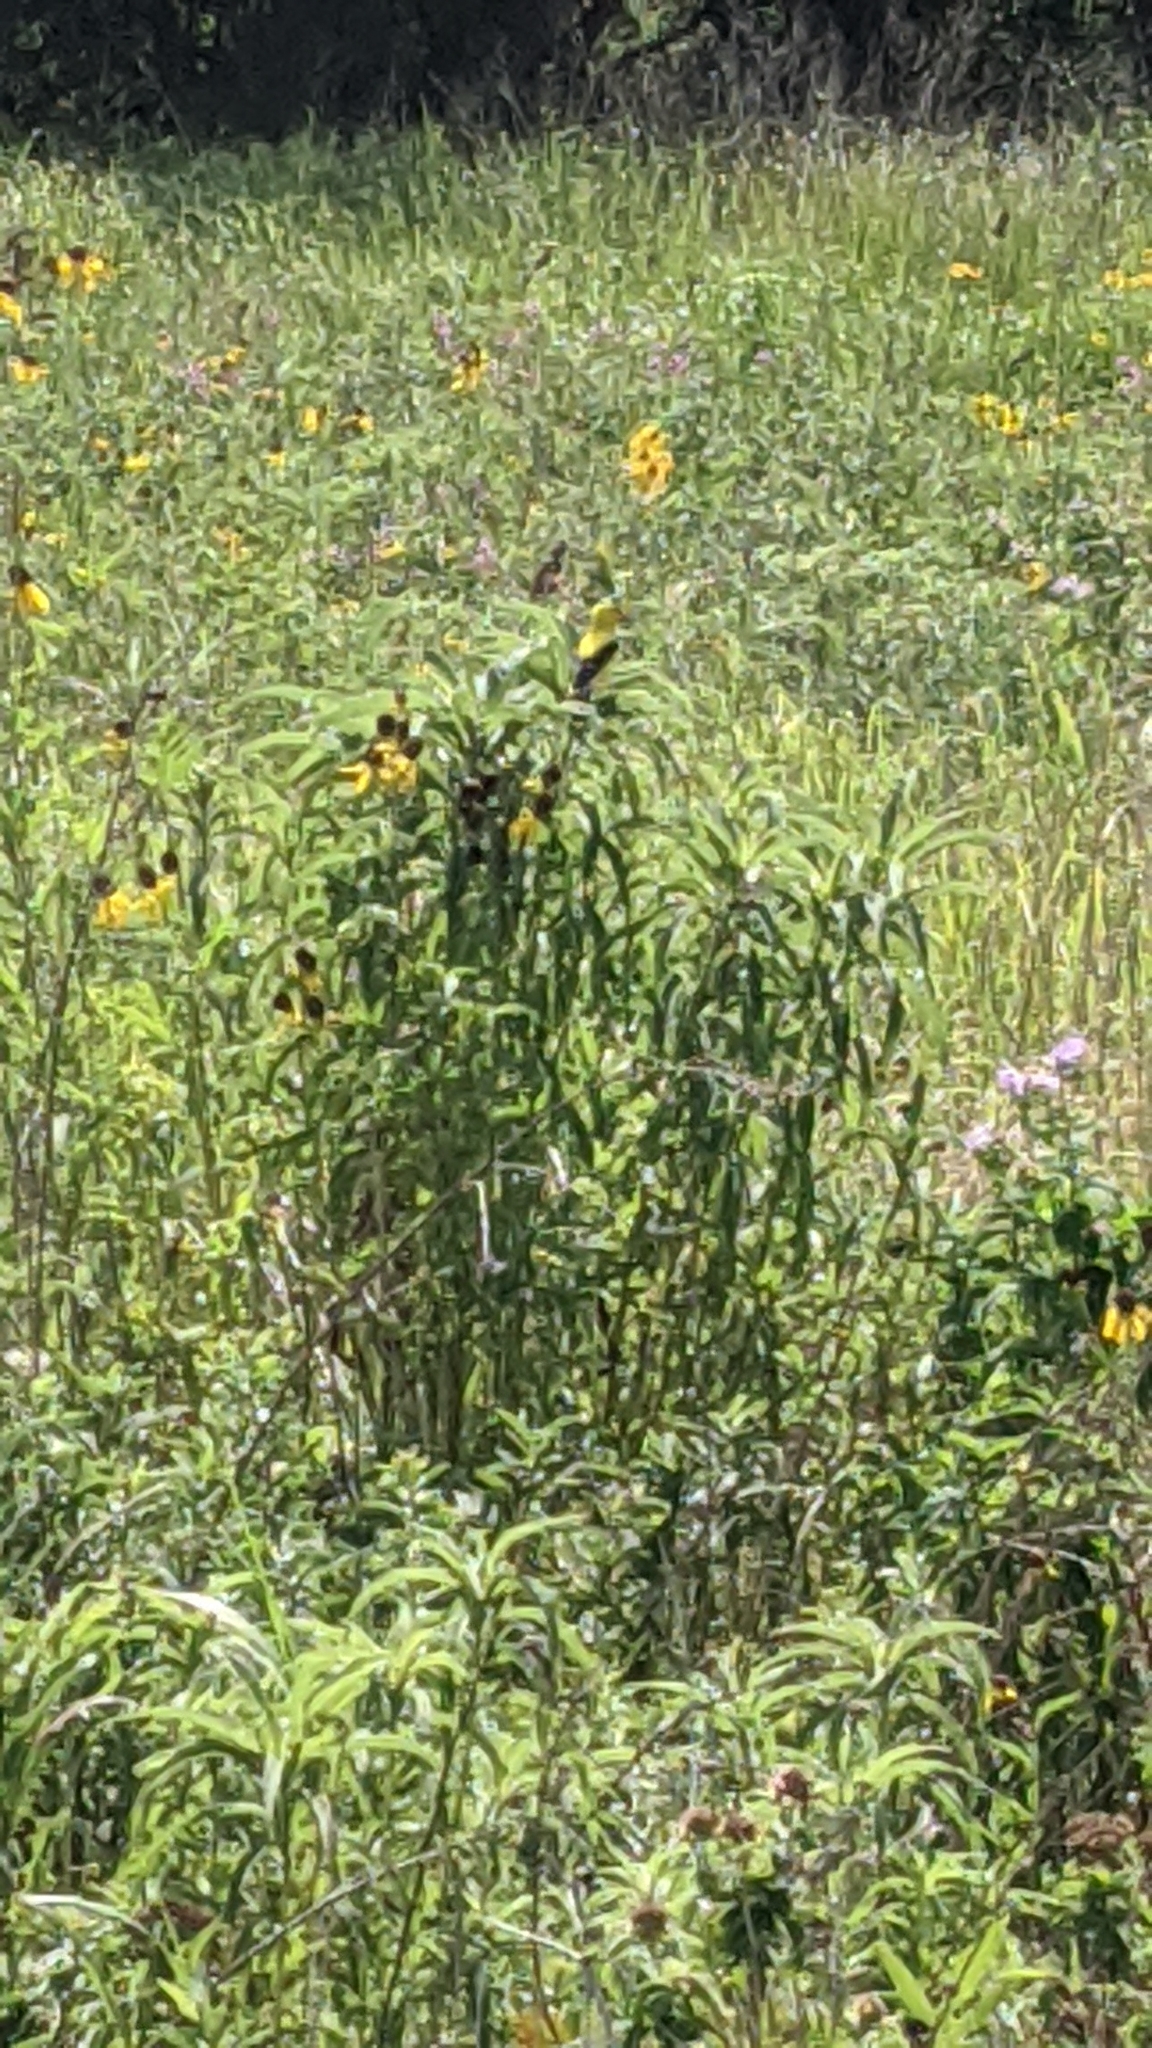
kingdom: Animalia
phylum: Chordata
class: Aves
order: Passeriformes
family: Fringillidae
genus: Spinus
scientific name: Spinus tristis
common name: American goldfinch
